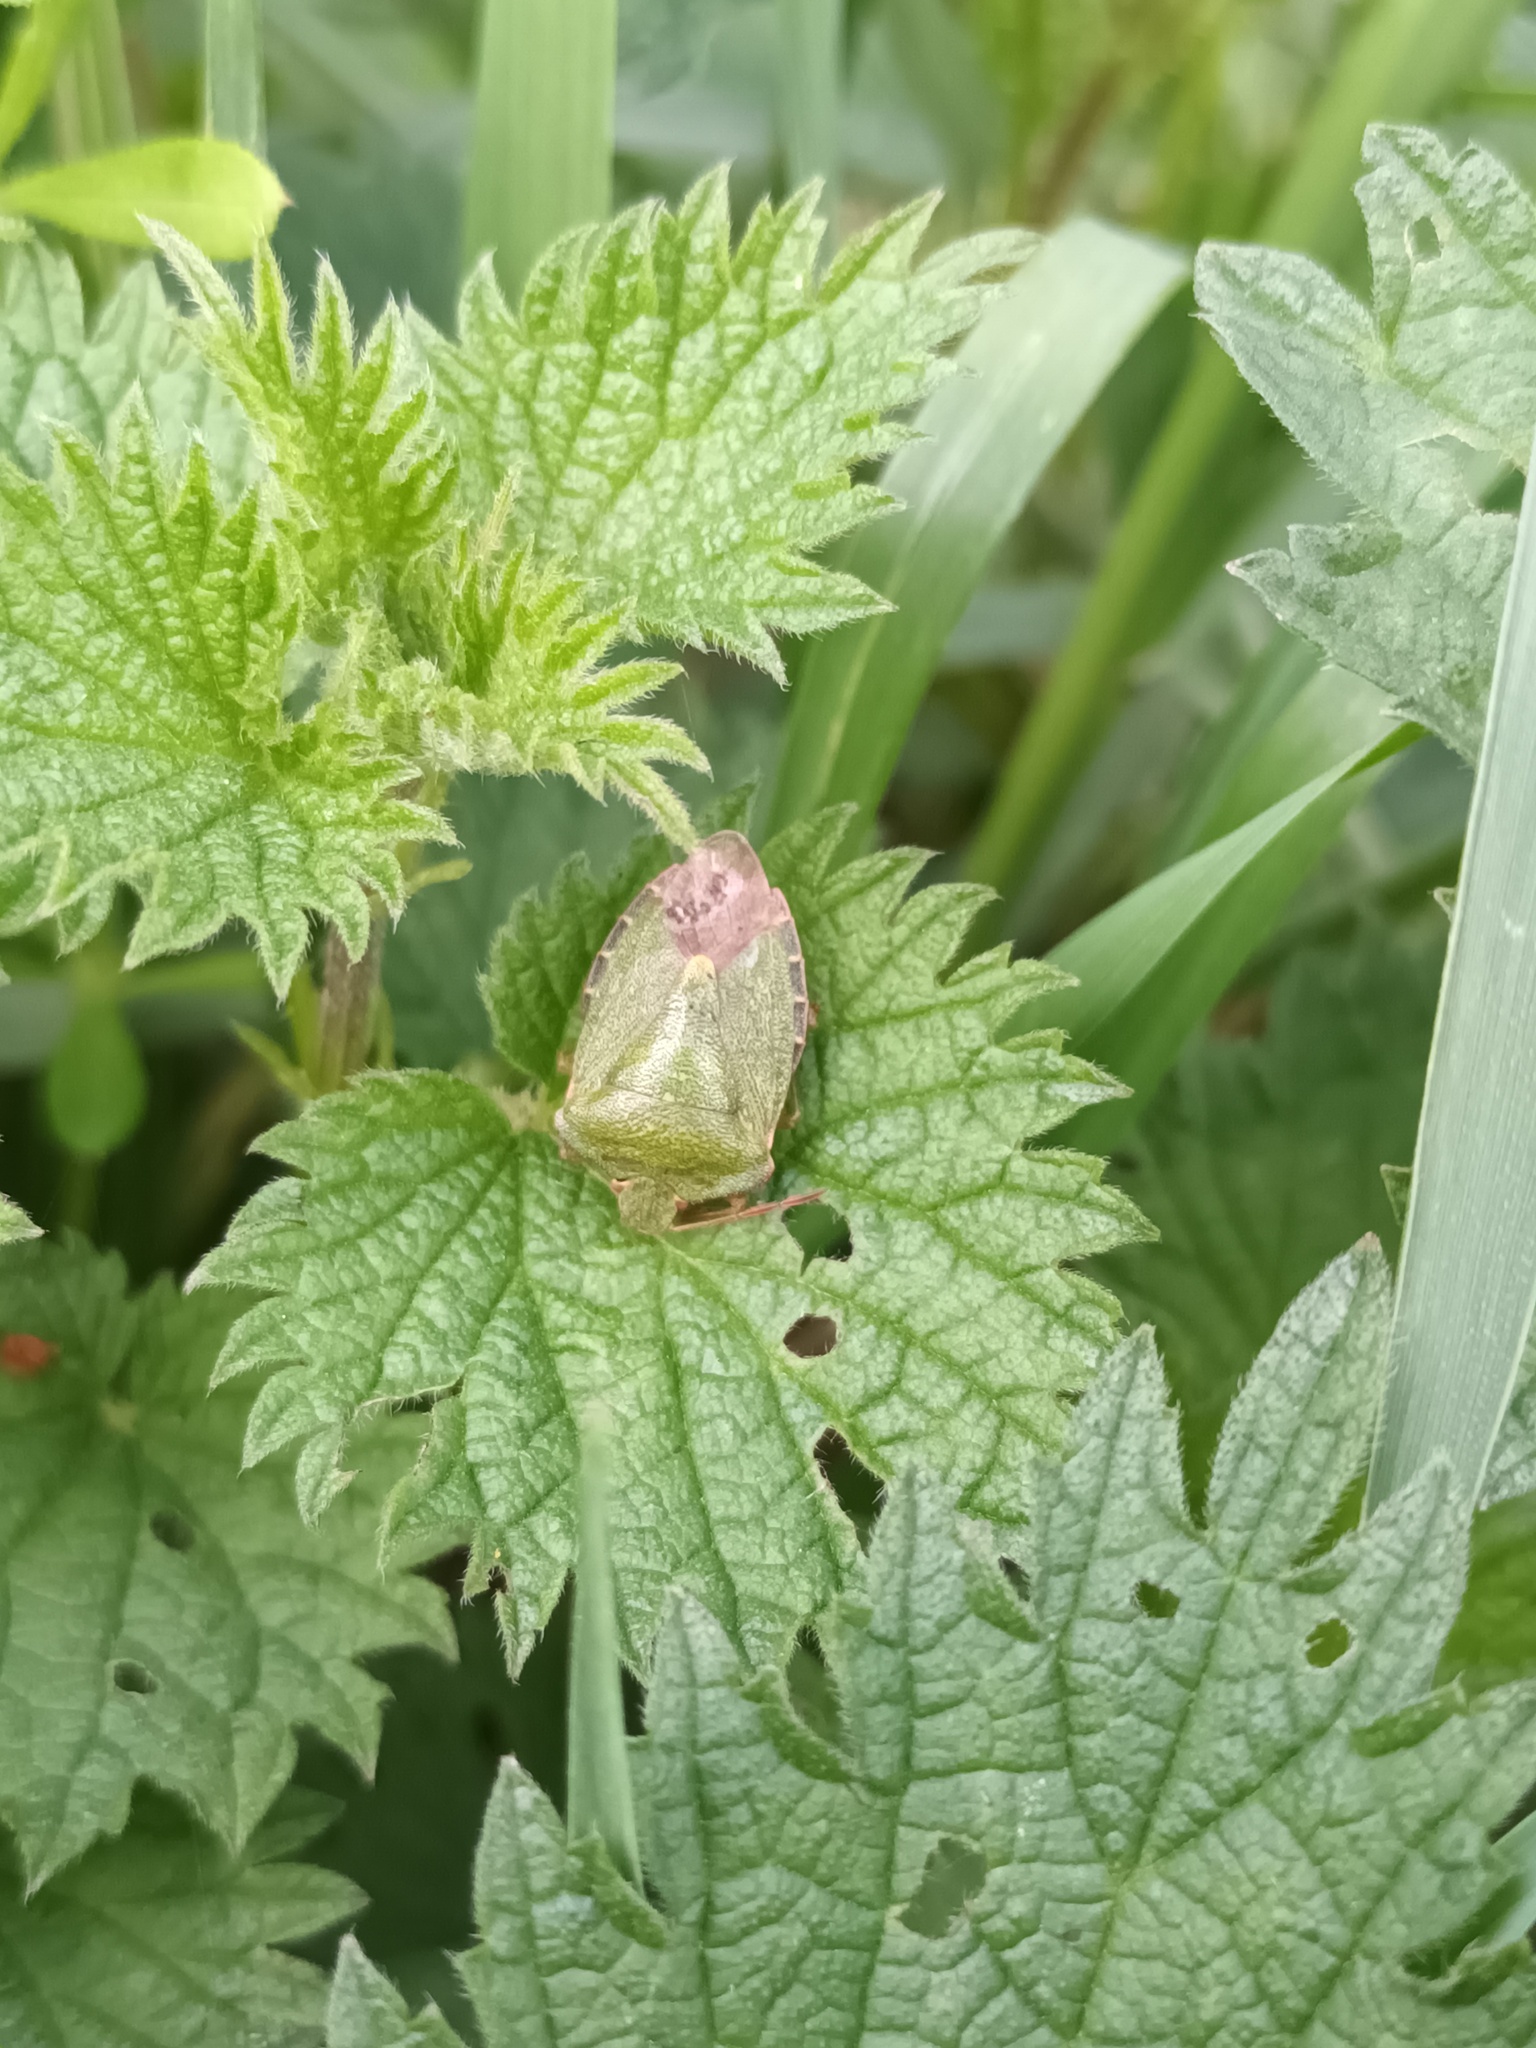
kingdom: Animalia
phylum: Arthropoda
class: Insecta
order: Hemiptera
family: Pentatomidae
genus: Palomena
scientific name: Palomena prasina
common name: Green shieldbug
